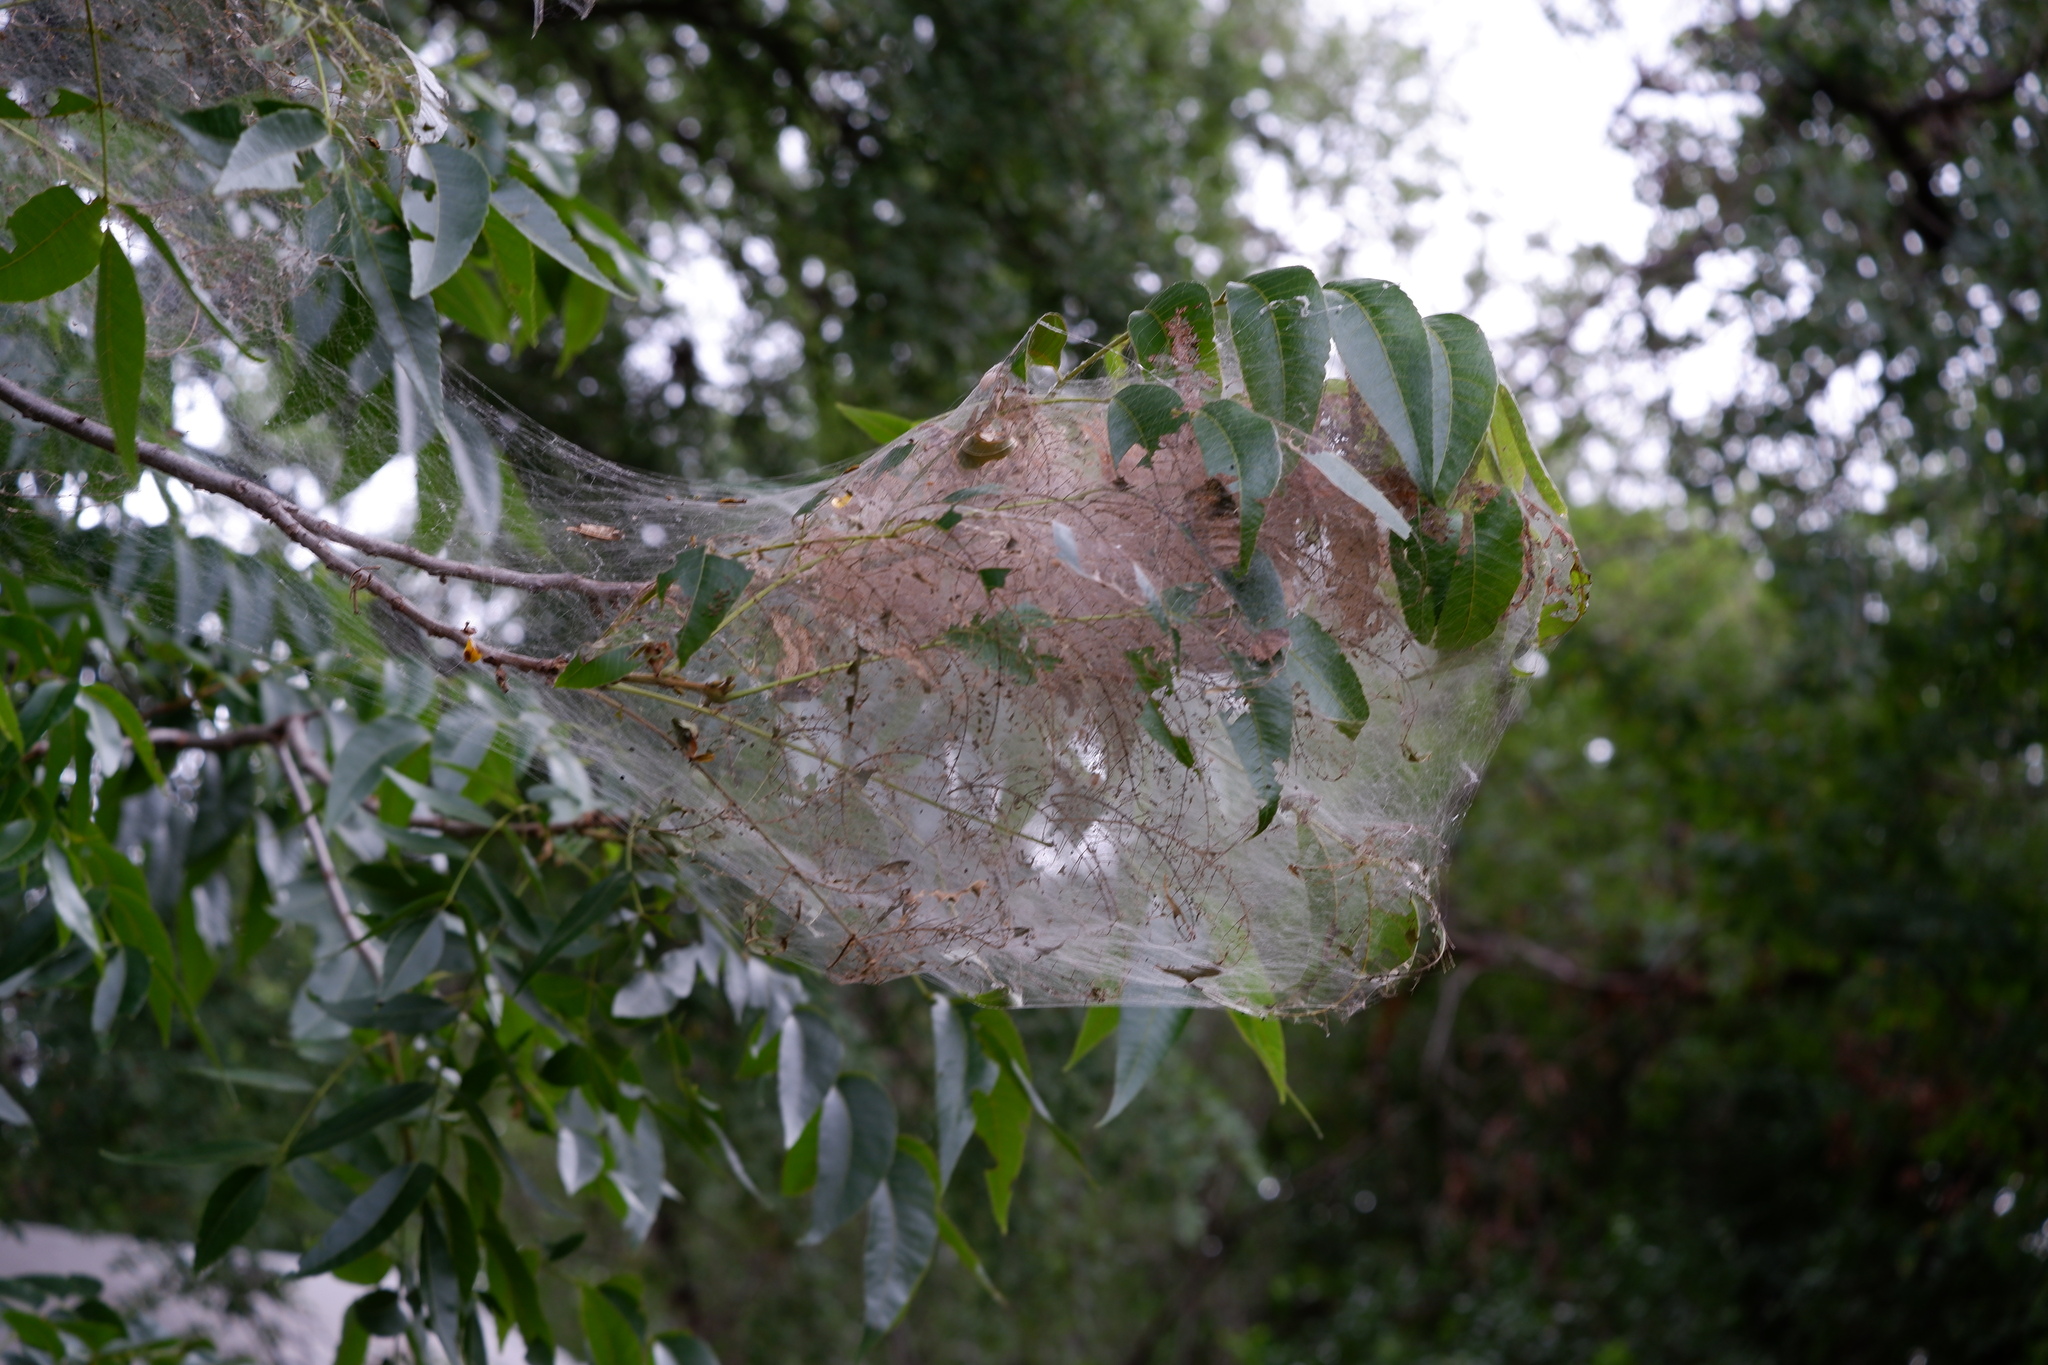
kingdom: Animalia
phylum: Arthropoda
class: Insecta
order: Lepidoptera
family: Erebidae
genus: Hyphantria
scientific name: Hyphantria cunea
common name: American white moth
